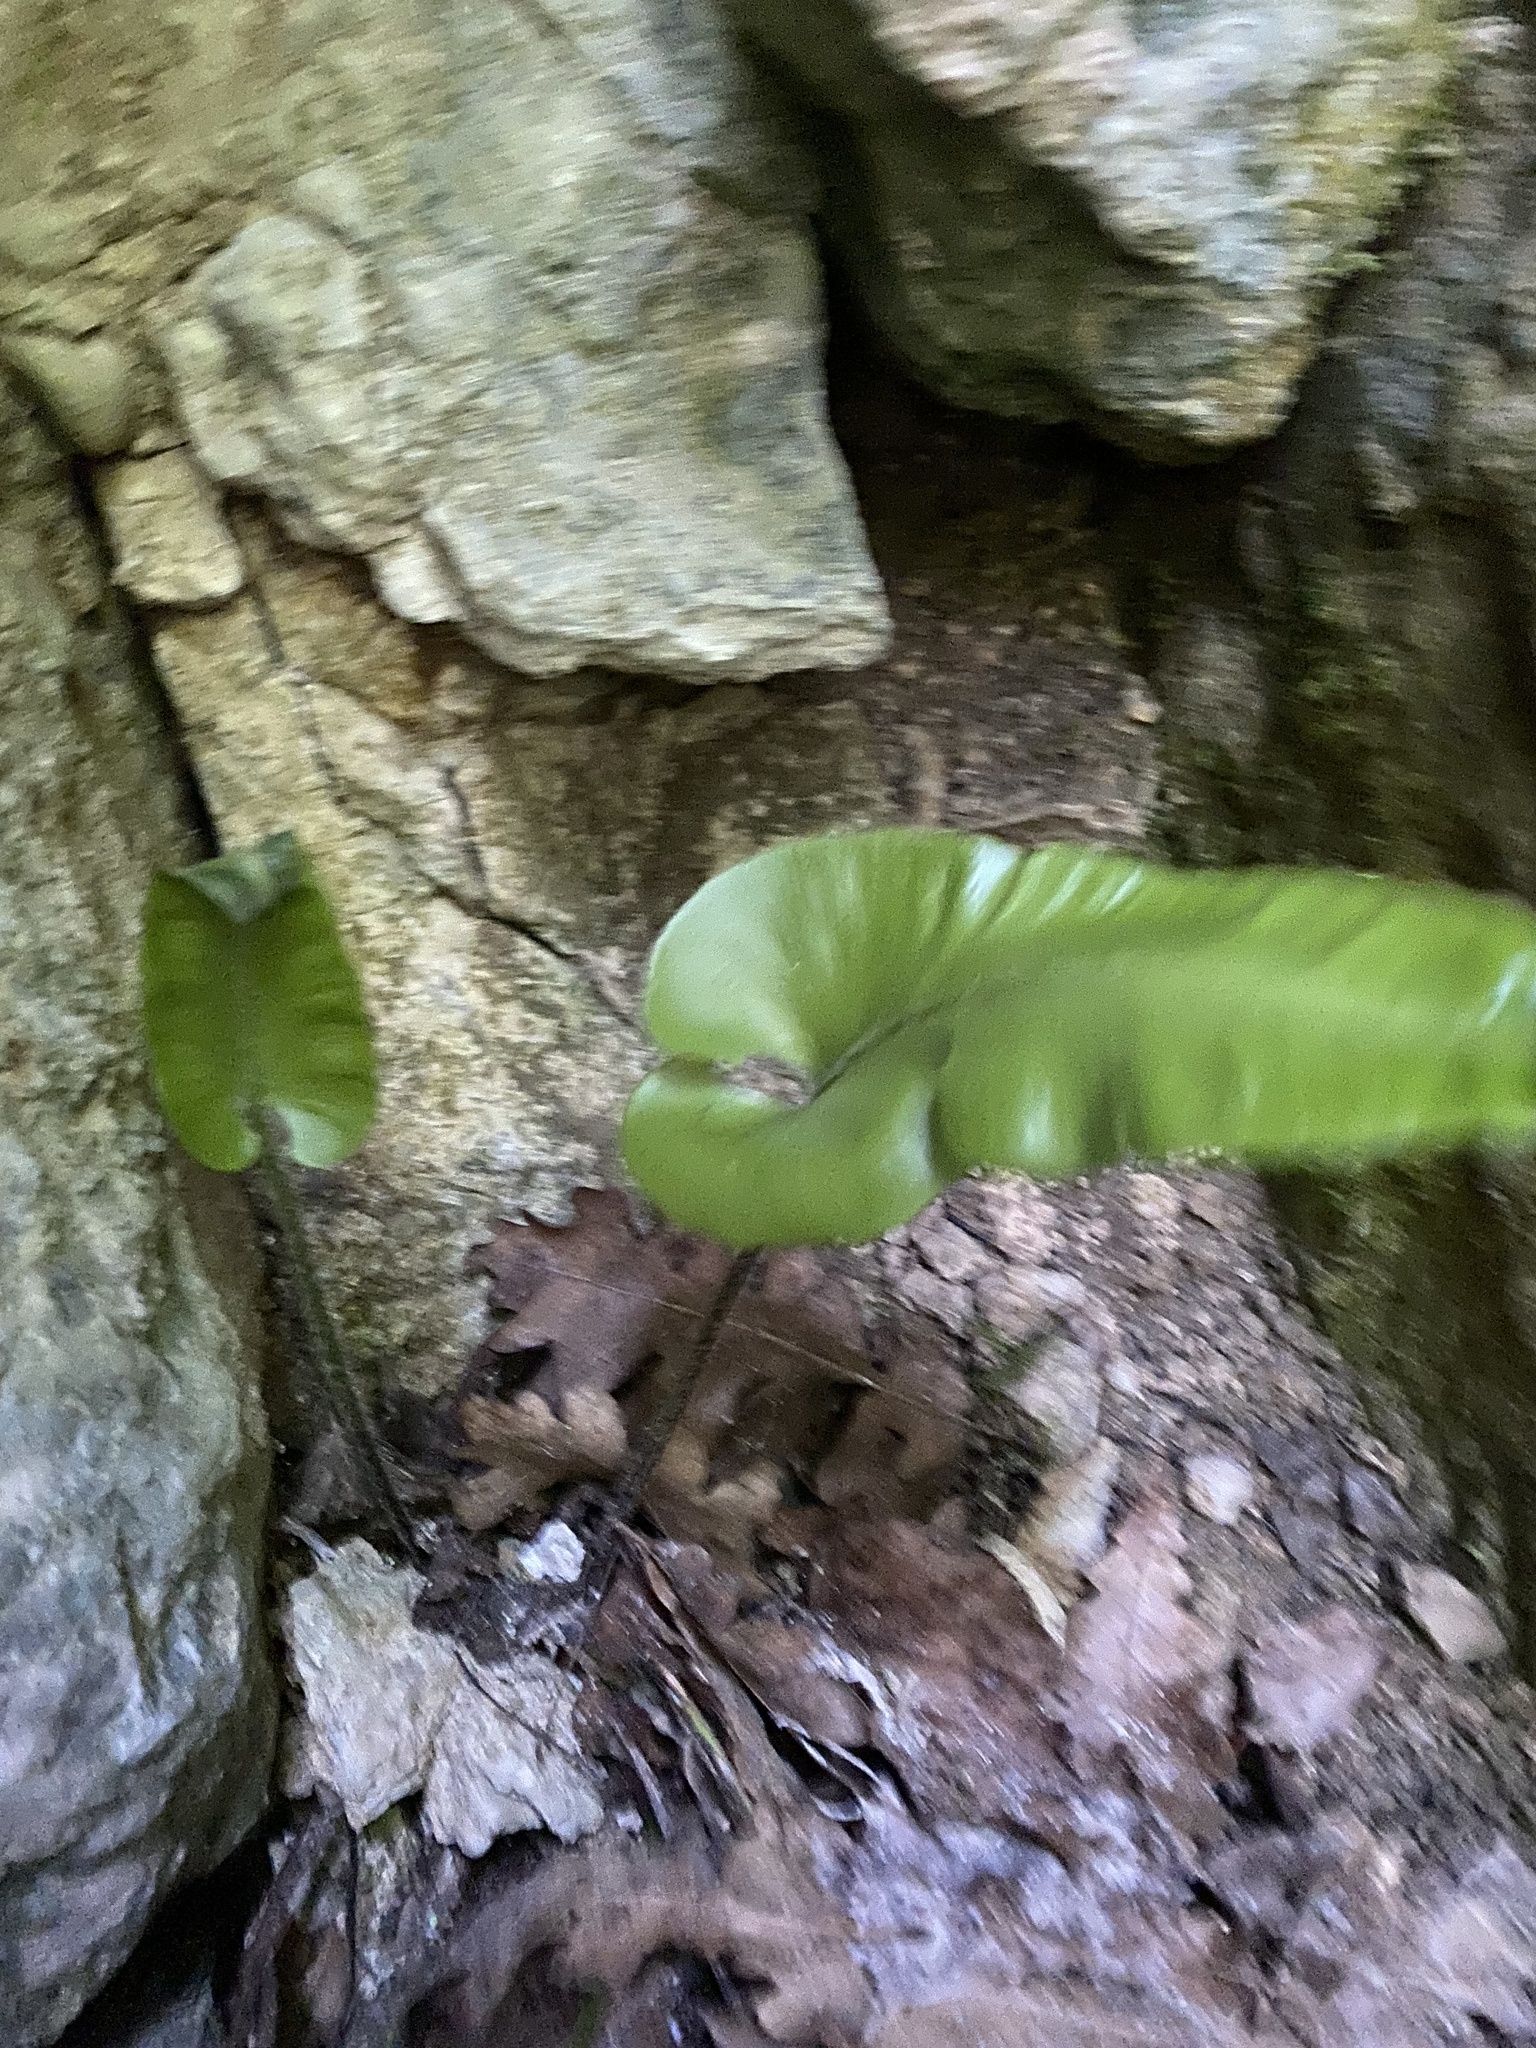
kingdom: Plantae
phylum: Tracheophyta
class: Polypodiopsida
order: Polypodiales
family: Aspleniaceae
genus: Asplenium
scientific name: Asplenium scolopendrium
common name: Hart's-tongue fern
